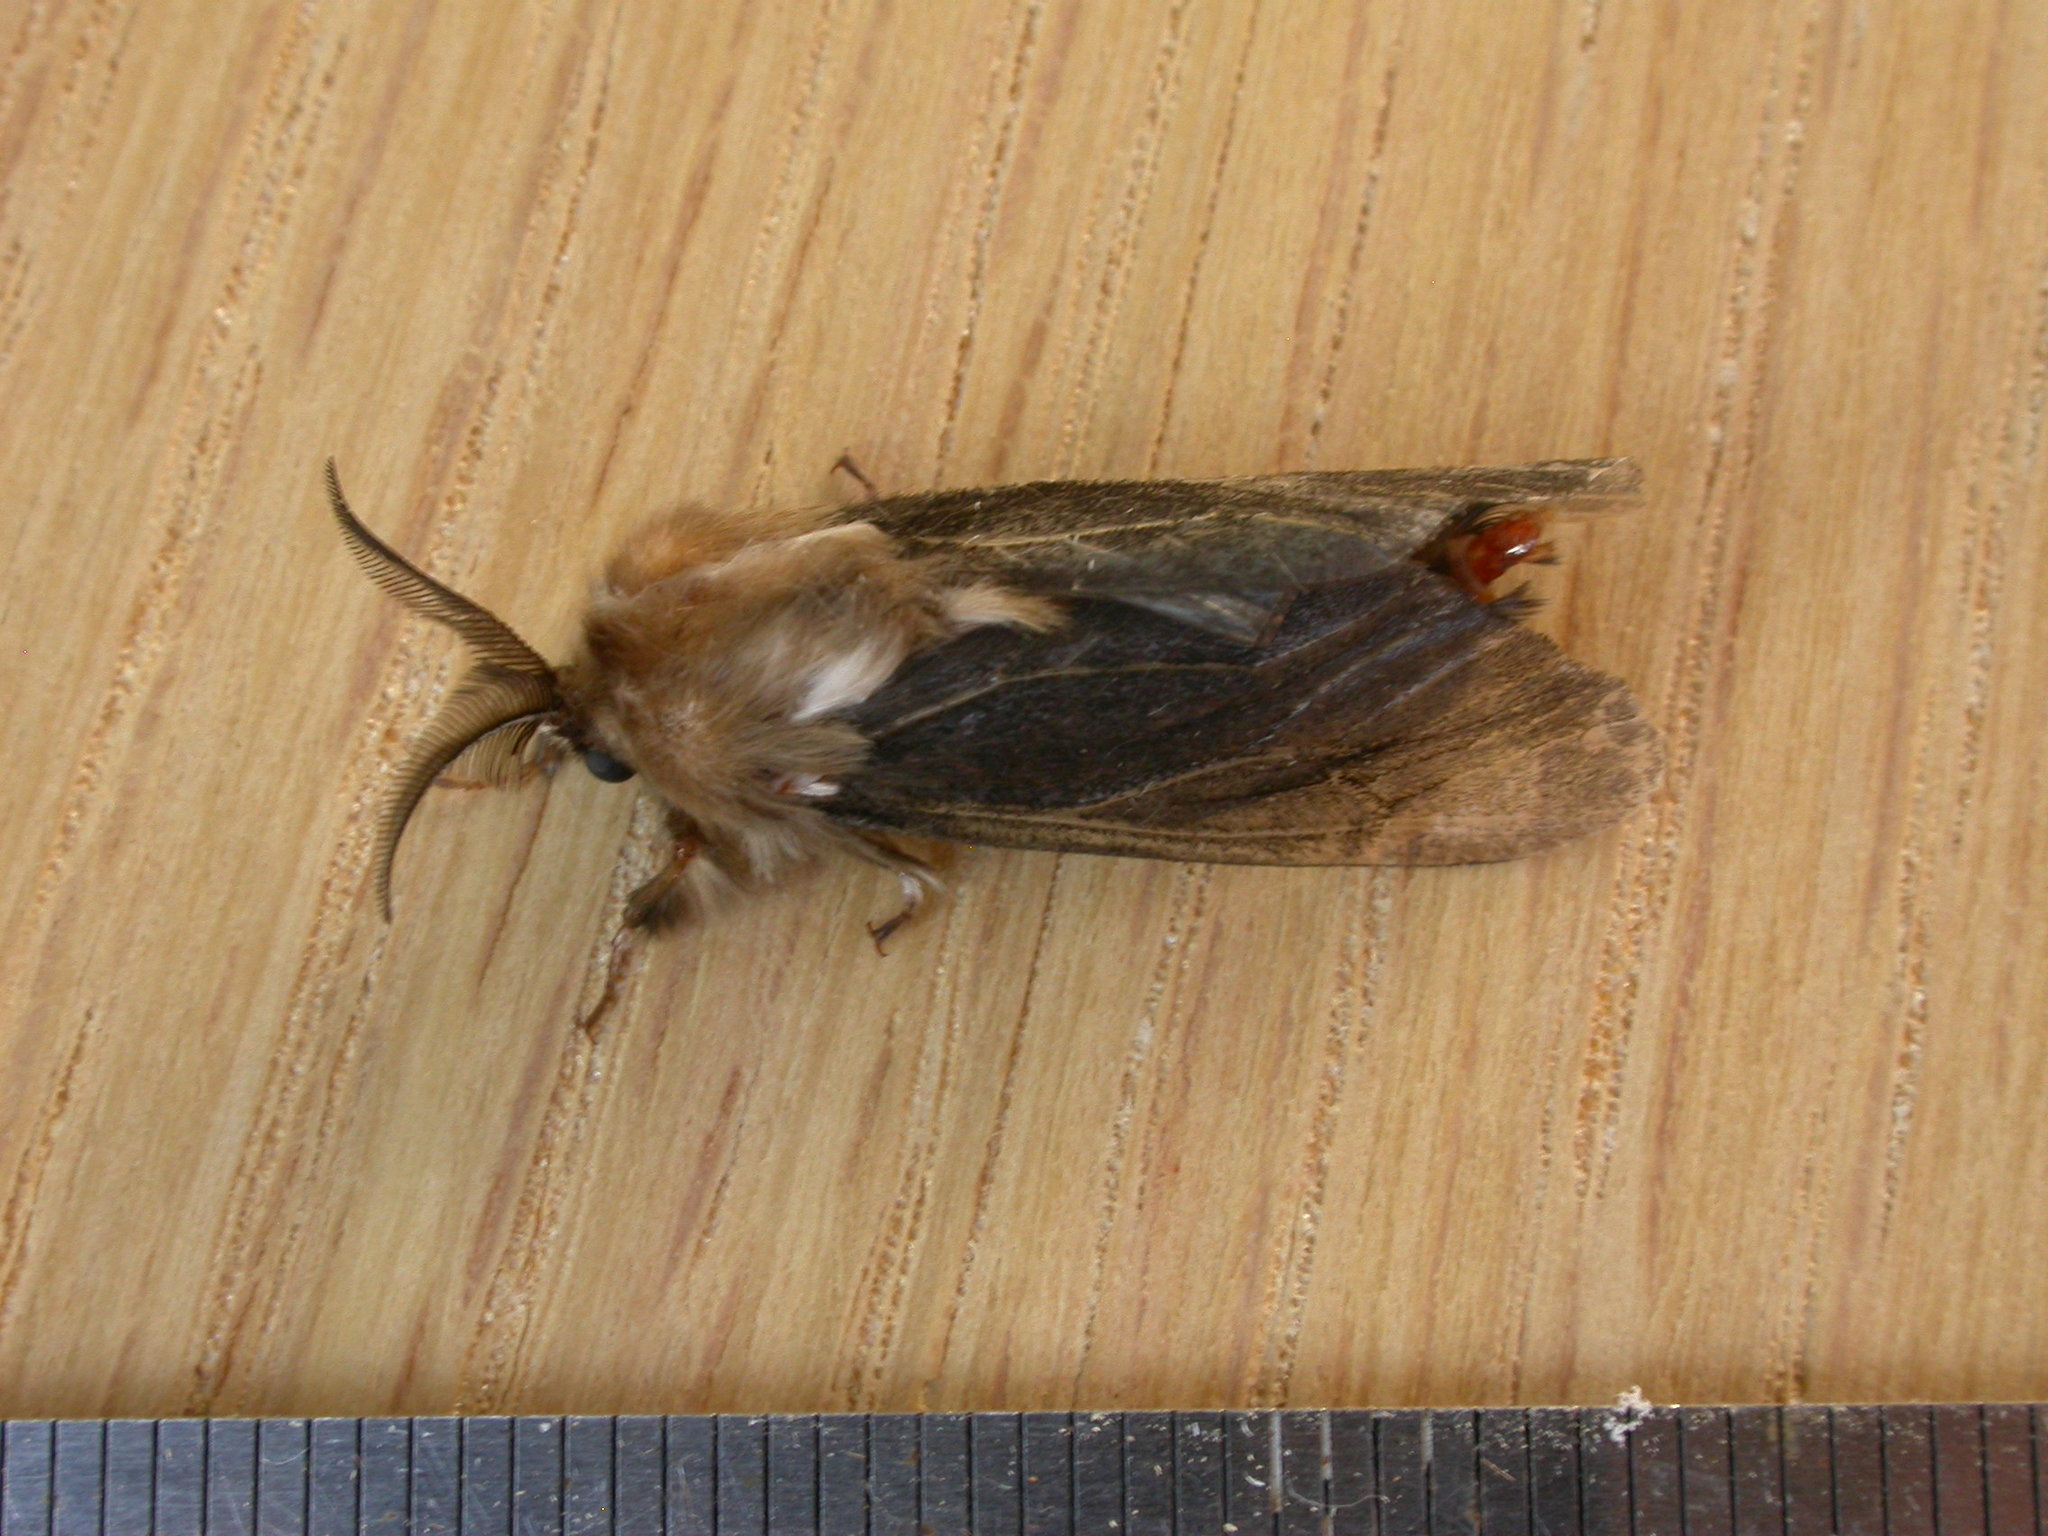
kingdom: Animalia
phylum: Arthropoda
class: Insecta
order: Lepidoptera
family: Psychidae
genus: Clania
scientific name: Clania ignobilis
